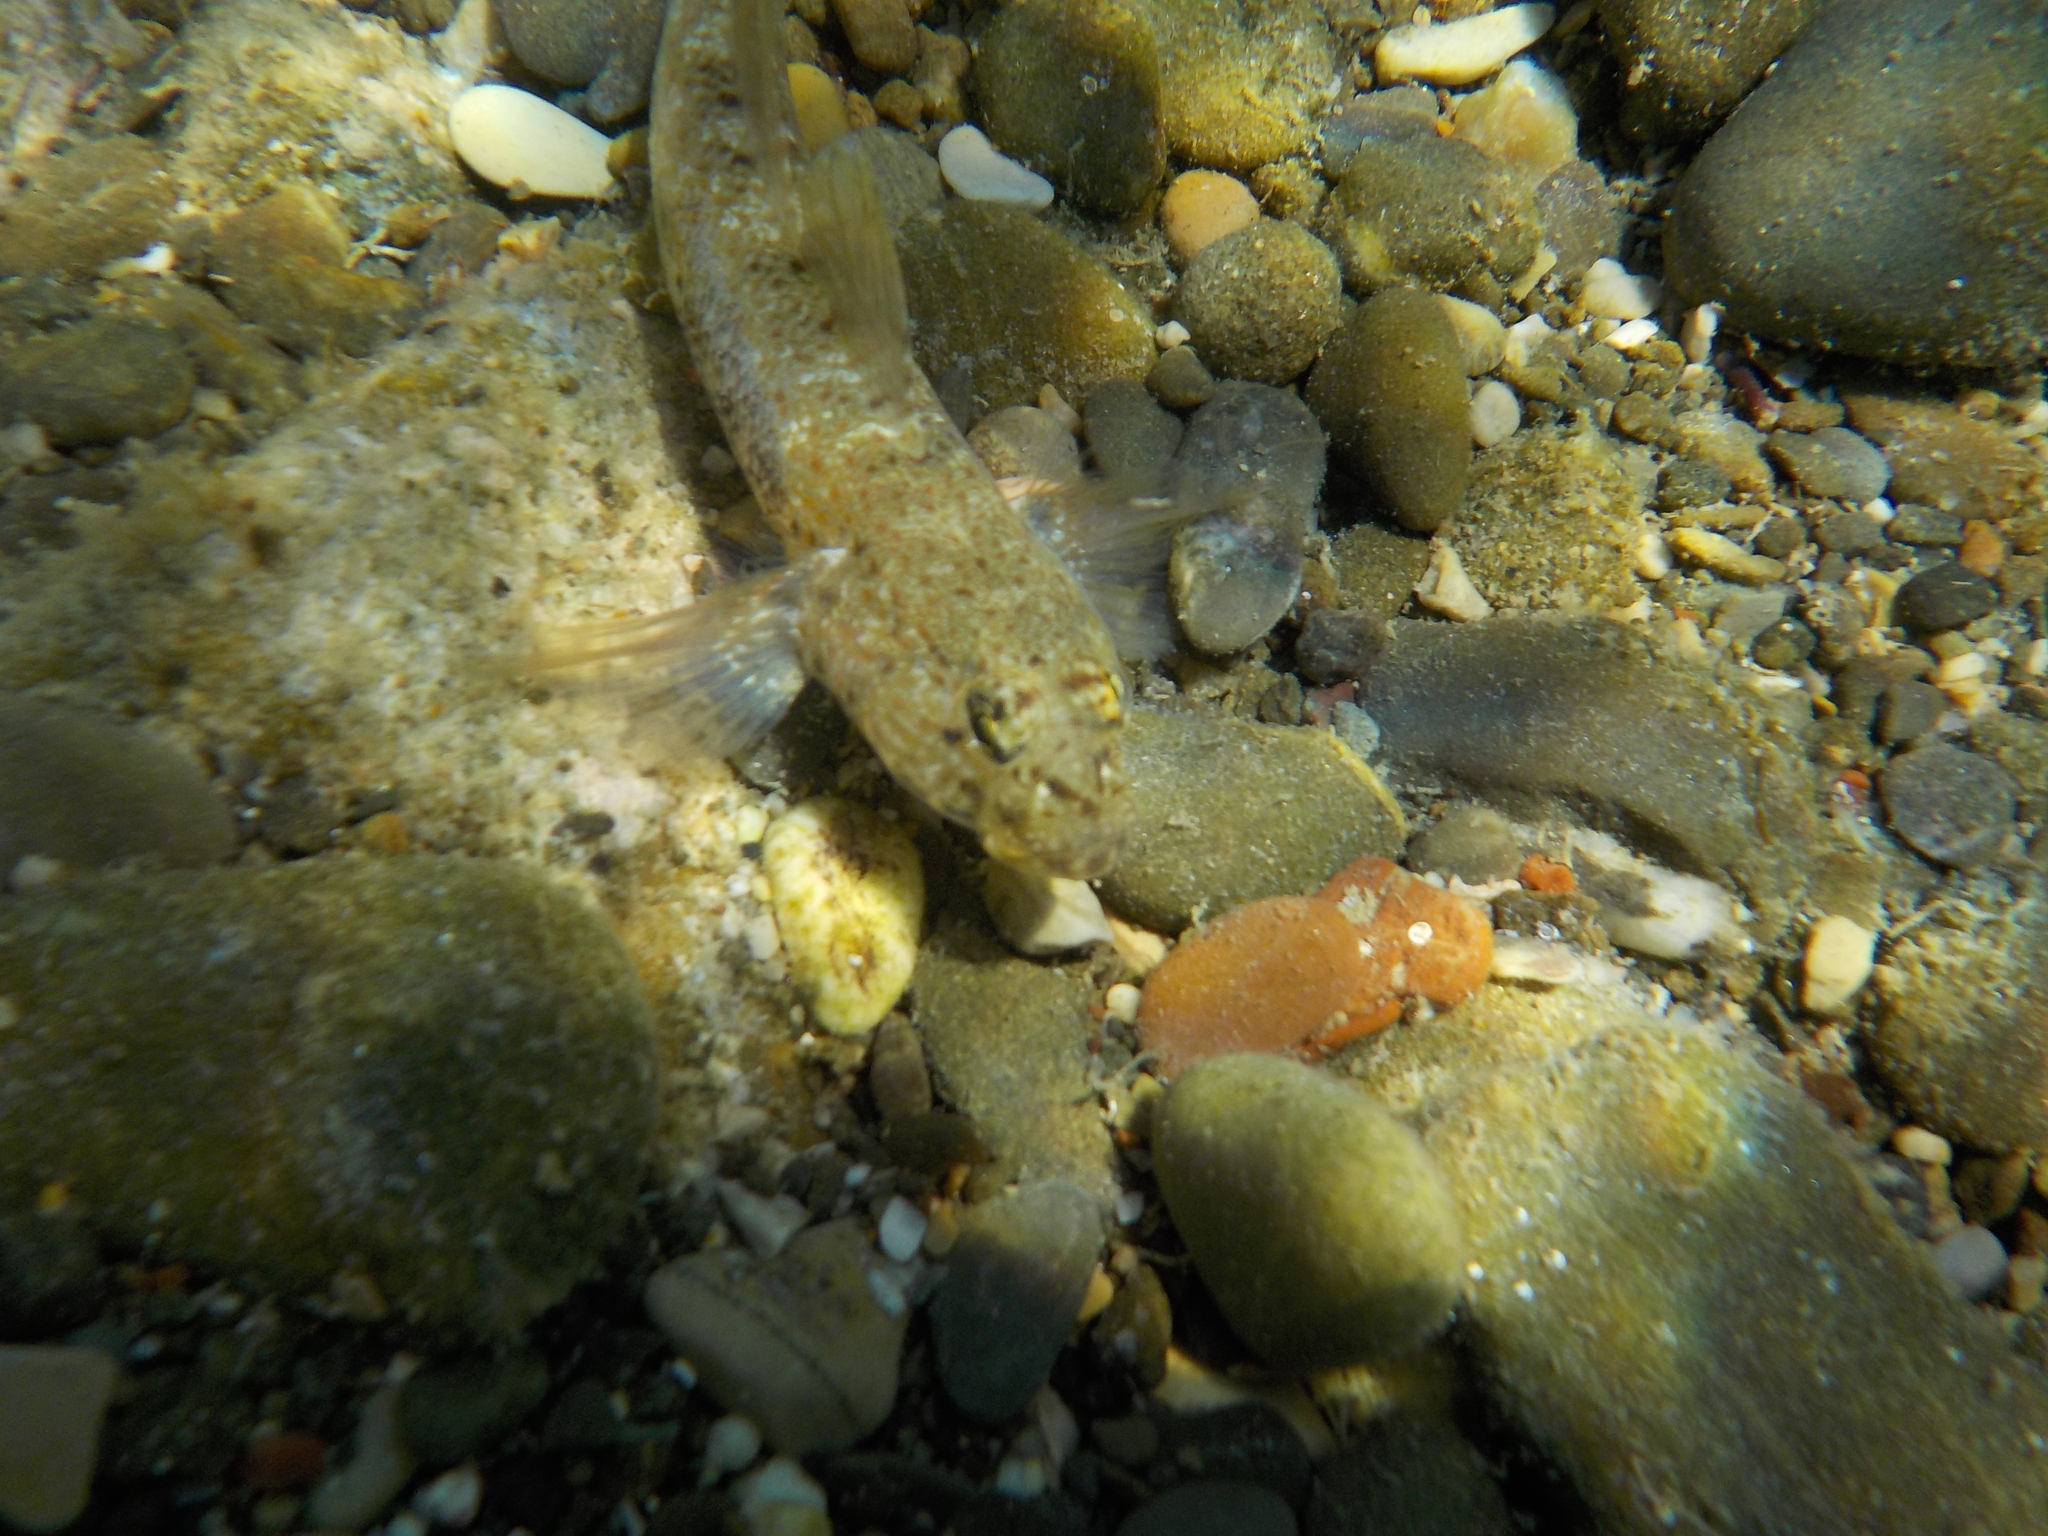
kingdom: Animalia
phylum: Chordata
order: Perciformes
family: Gobiidae
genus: Gobius
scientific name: Gobius incognitus
